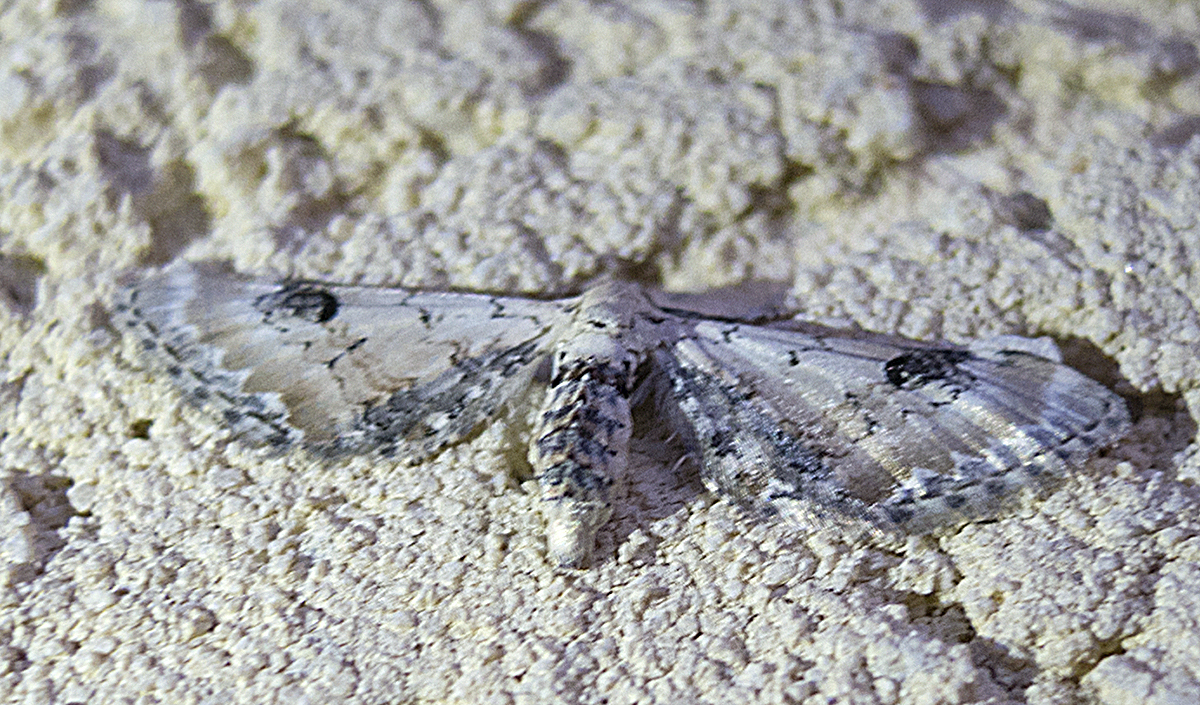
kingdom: Animalia
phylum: Arthropoda
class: Insecta
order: Lepidoptera
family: Geometridae
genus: Eupithecia
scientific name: Eupithecia centaureata
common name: Lime-speck pug
